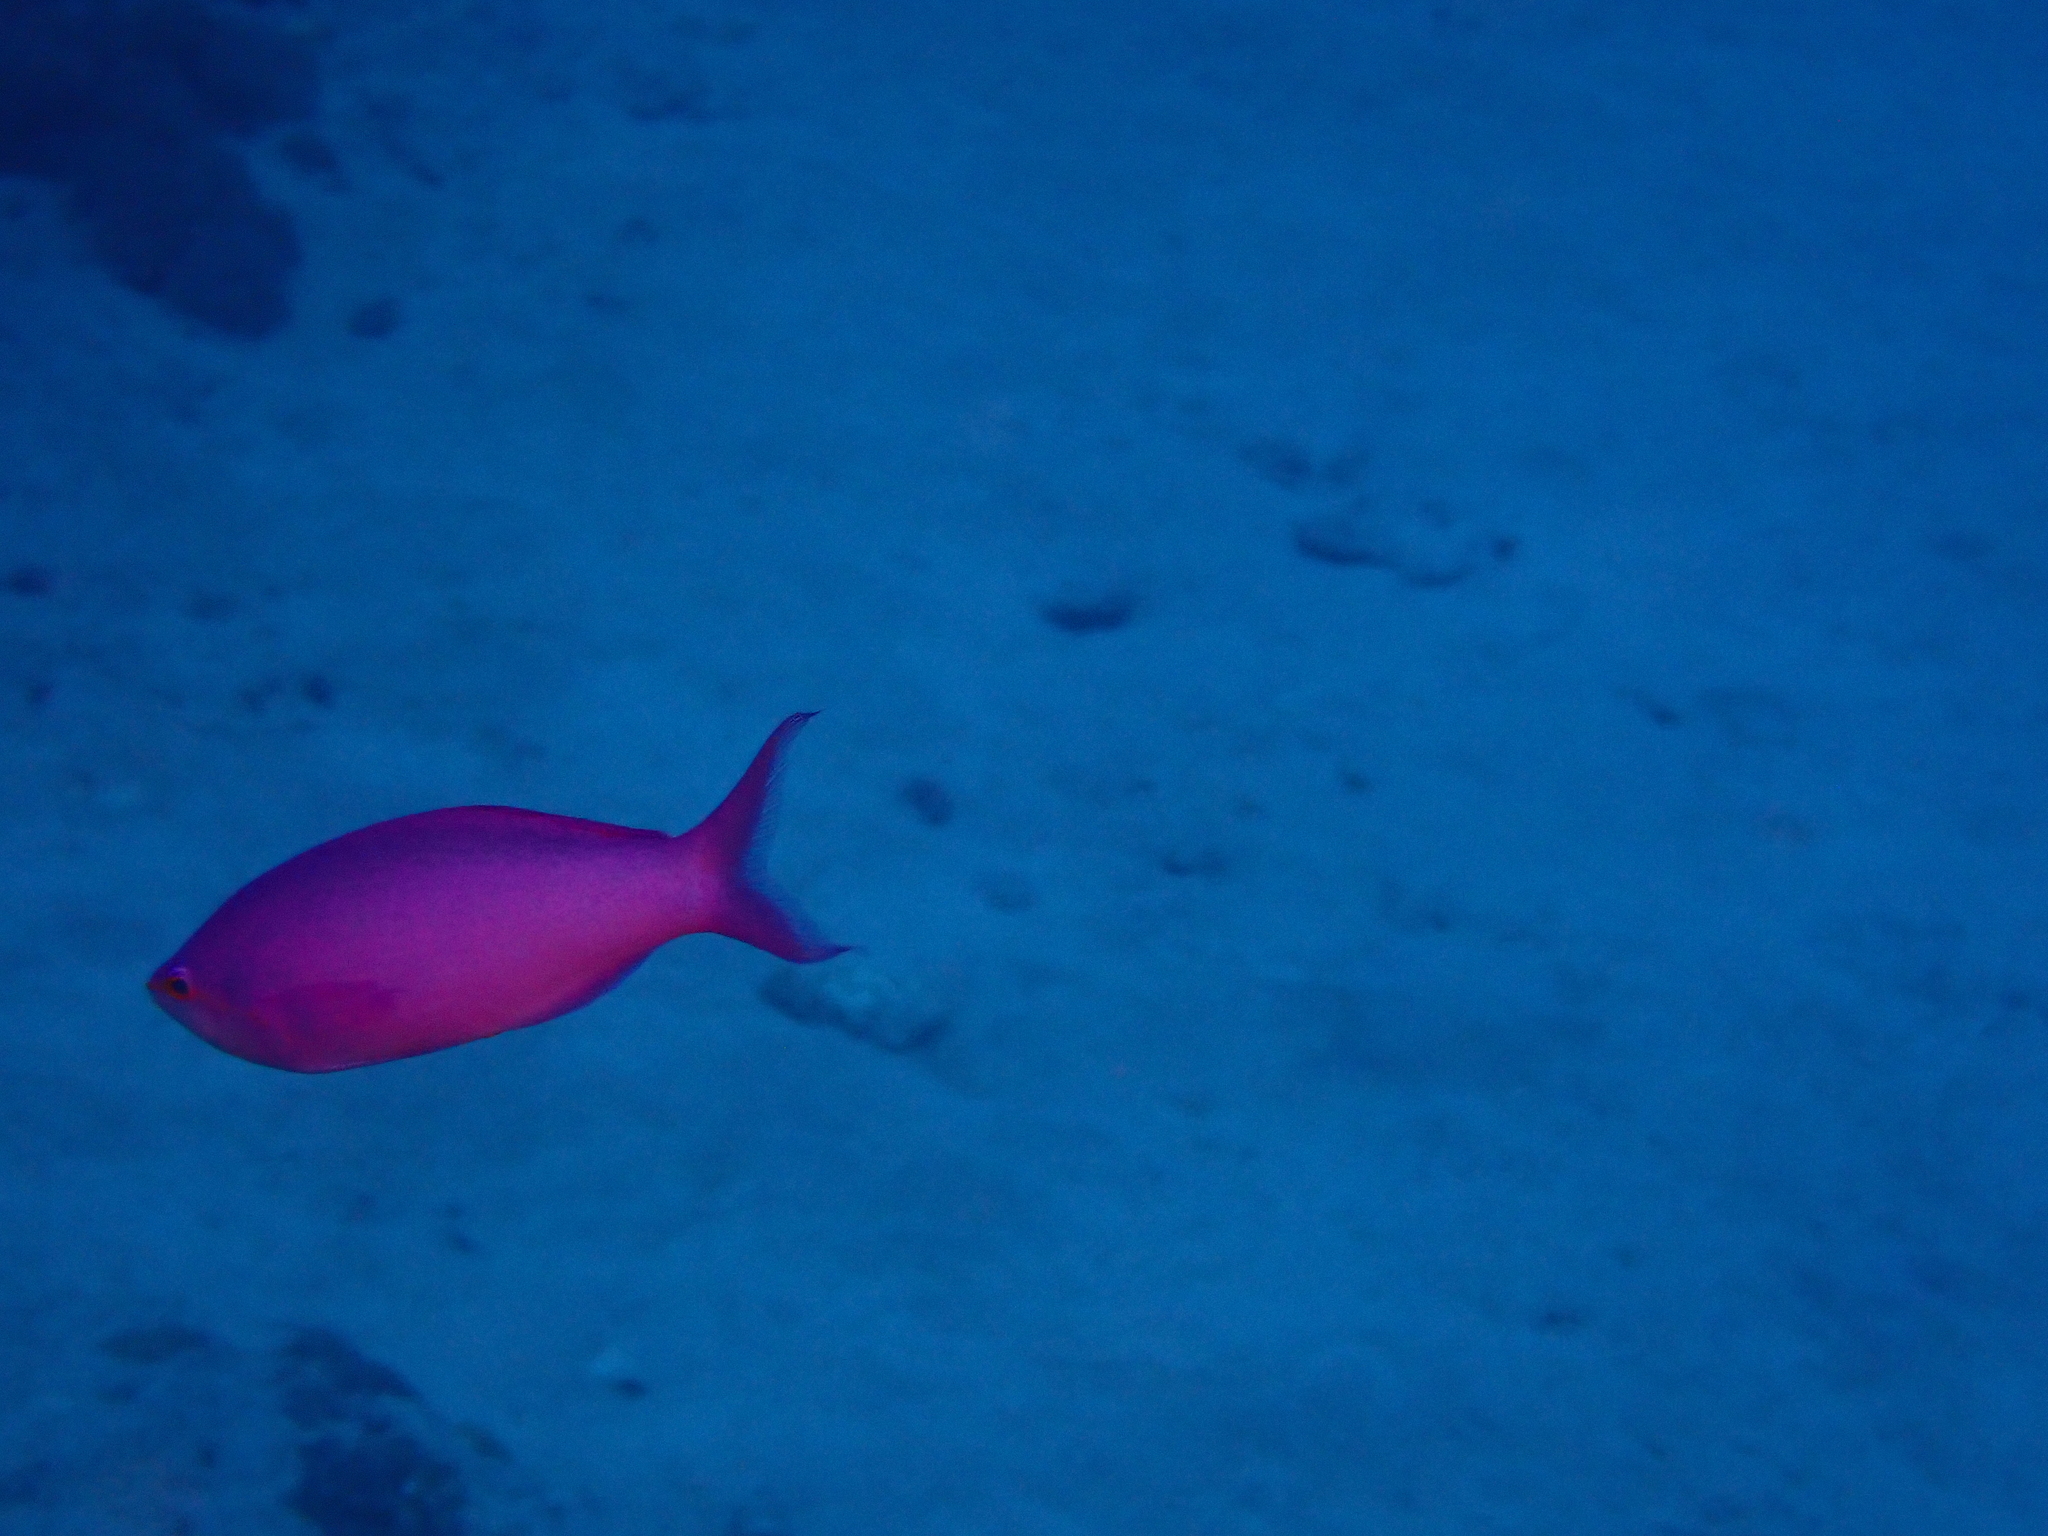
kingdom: Animalia
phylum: Chordata
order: Perciformes
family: Serranidae
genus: Pseudanthias
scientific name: Pseudanthias pascalus
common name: Amethyst anthias
